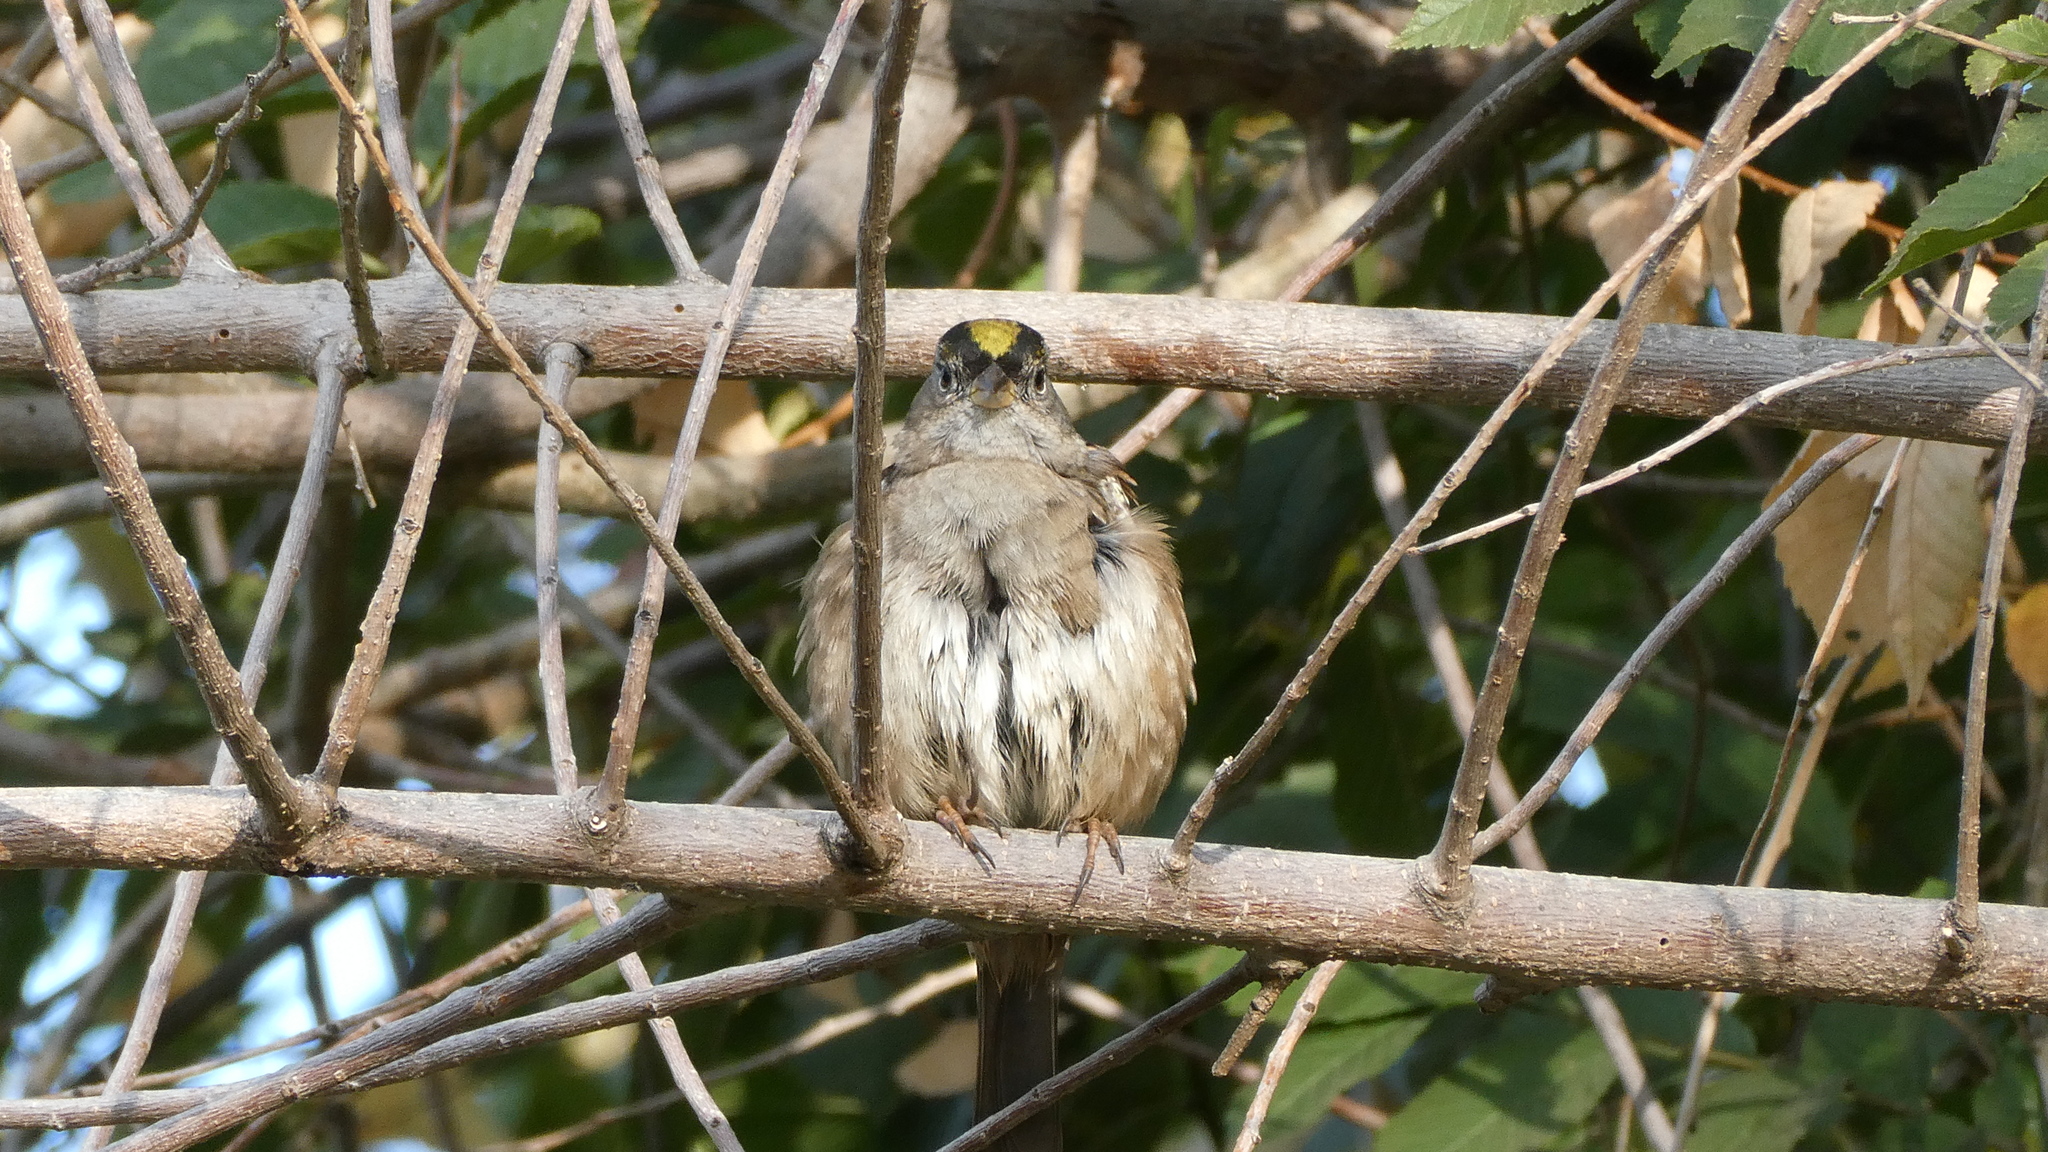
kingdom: Animalia
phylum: Chordata
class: Aves
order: Passeriformes
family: Passerellidae
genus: Zonotrichia
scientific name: Zonotrichia atricapilla
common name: Golden-crowned sparrow
